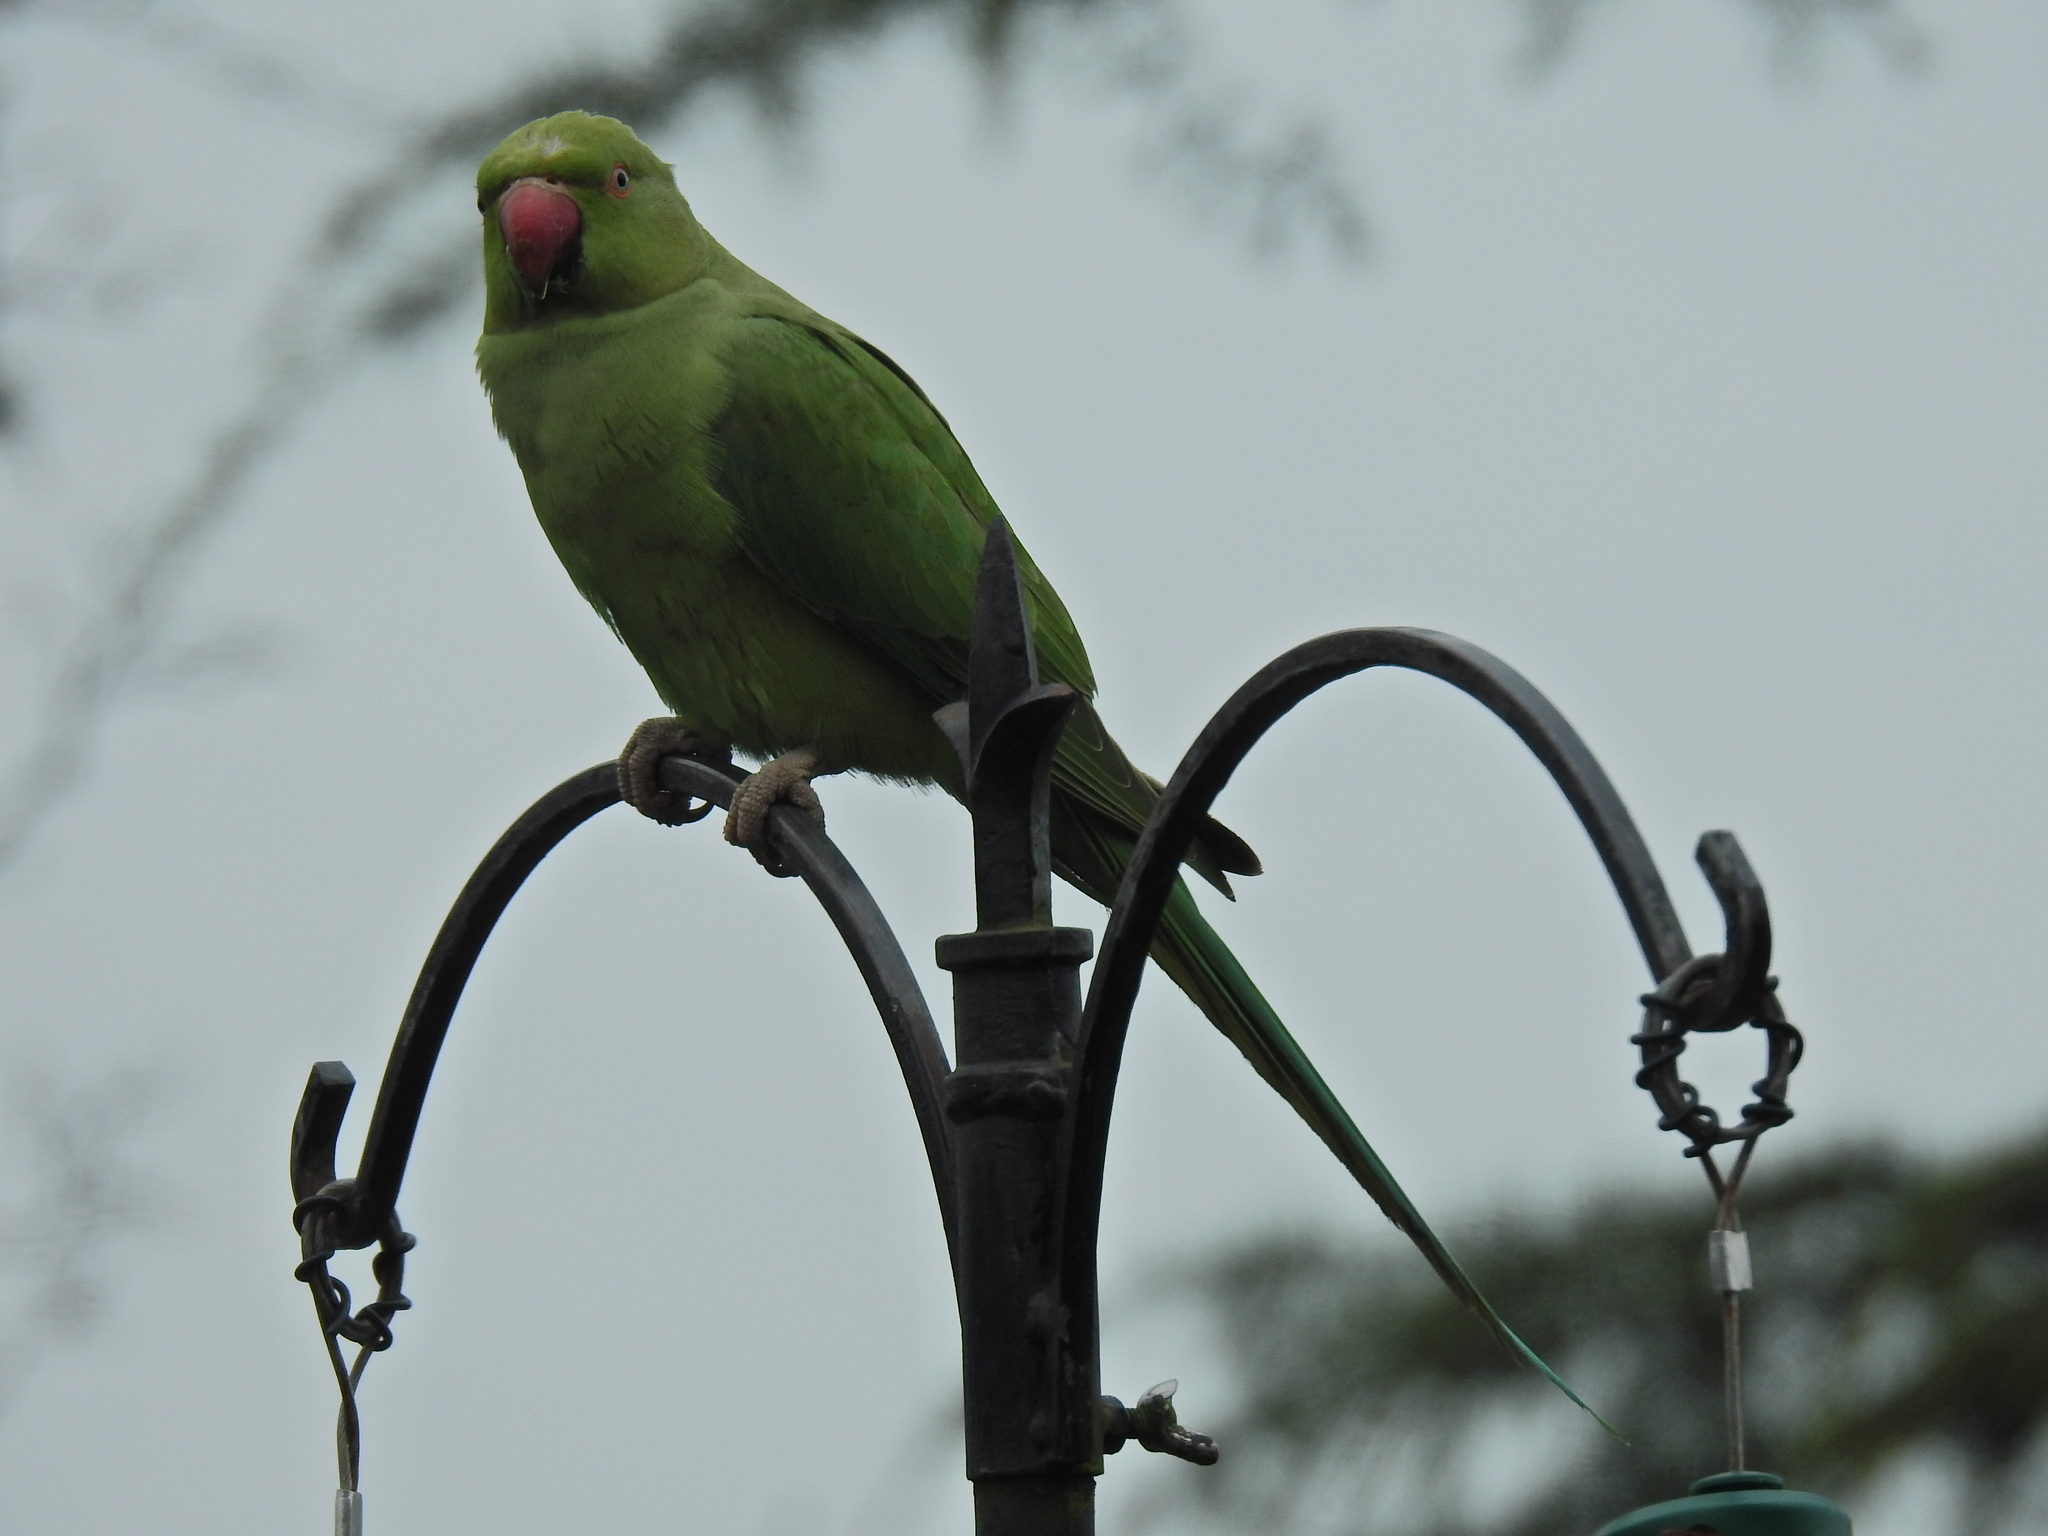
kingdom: Animalia
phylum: Chordata
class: Aves
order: Psittaciformes
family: Psittacidae
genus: Psittacula
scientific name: Psittacula krameri
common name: Rose-ringed parakeet
